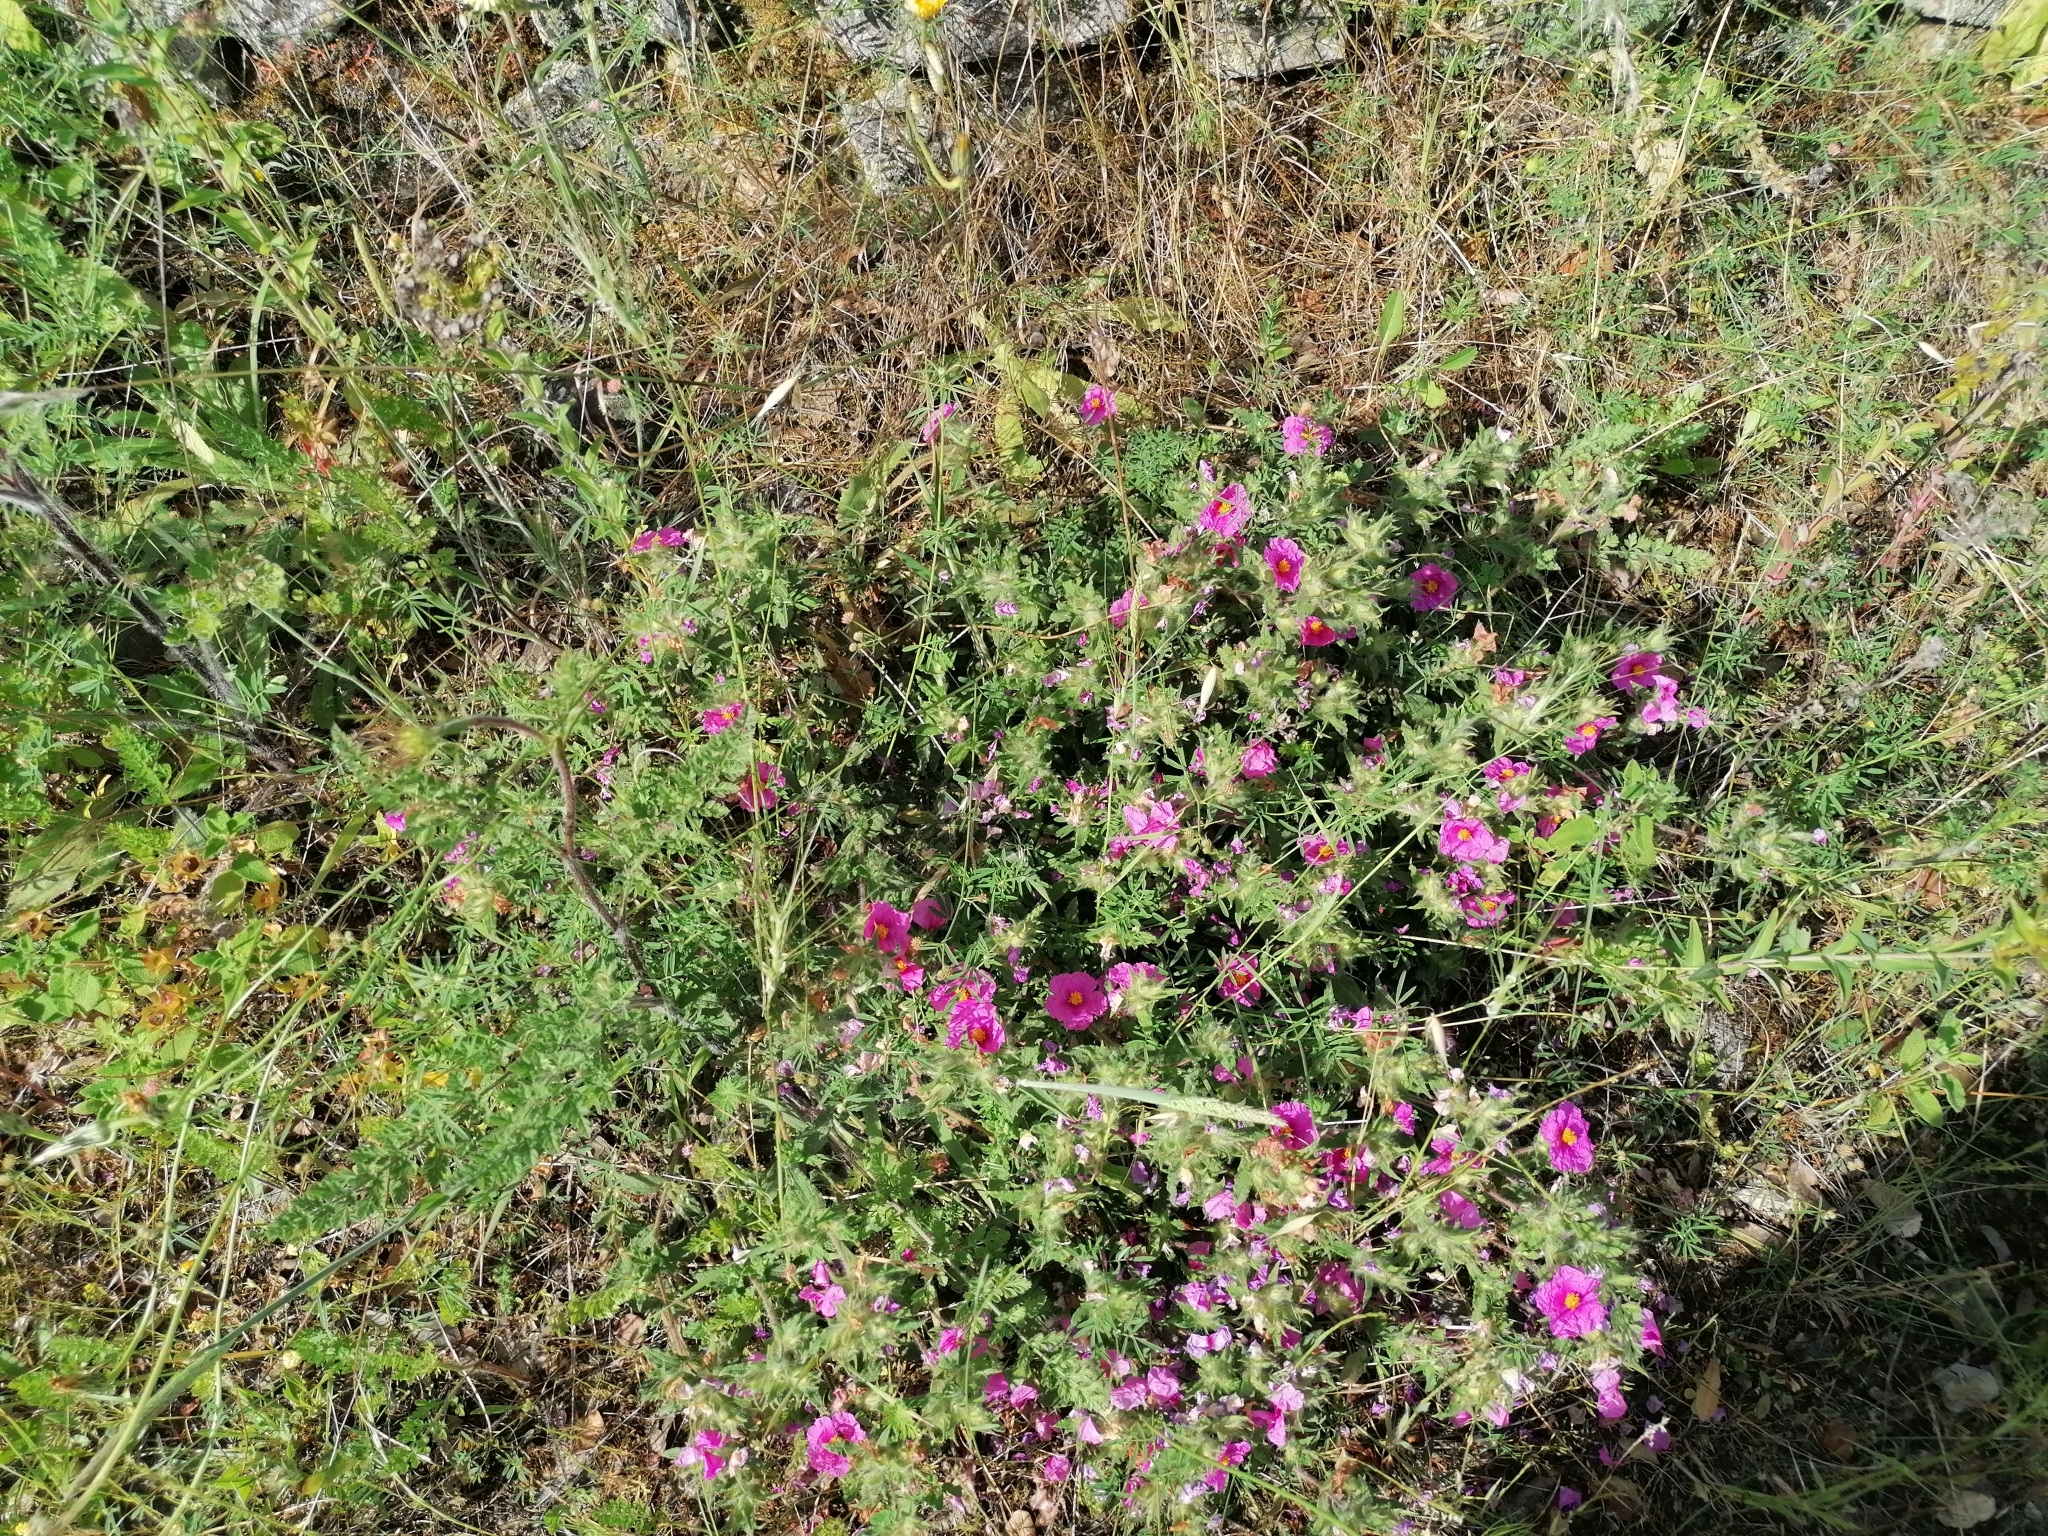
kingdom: Plantae
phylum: Tracheophyta
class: Magnoliopsida
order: Malvales
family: Cistaceae
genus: Cistus
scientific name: Cistus crispus
